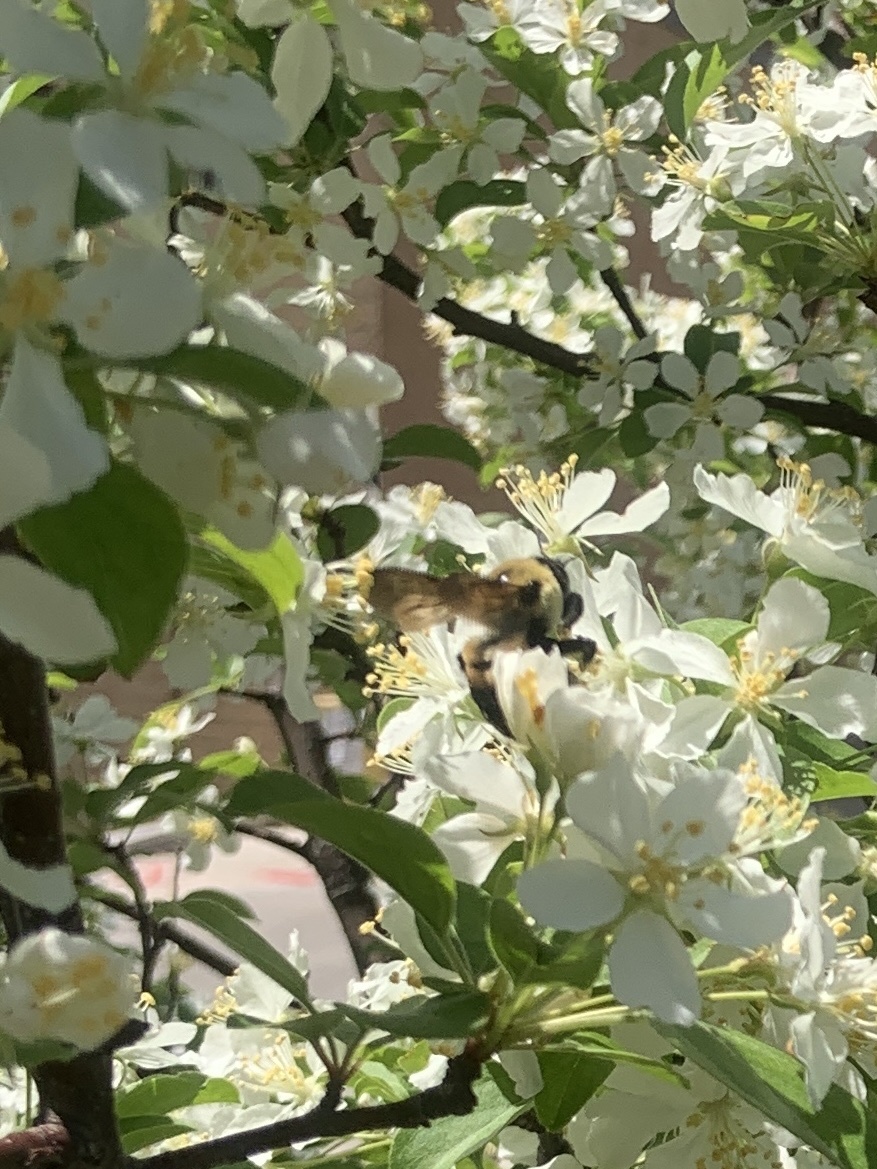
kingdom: Animalia
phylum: Arthropoda
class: Insecta
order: Hymenoptera
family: Apidae
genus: Bombus
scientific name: Bombus griseocollis
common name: Brown-belted bumble bee
